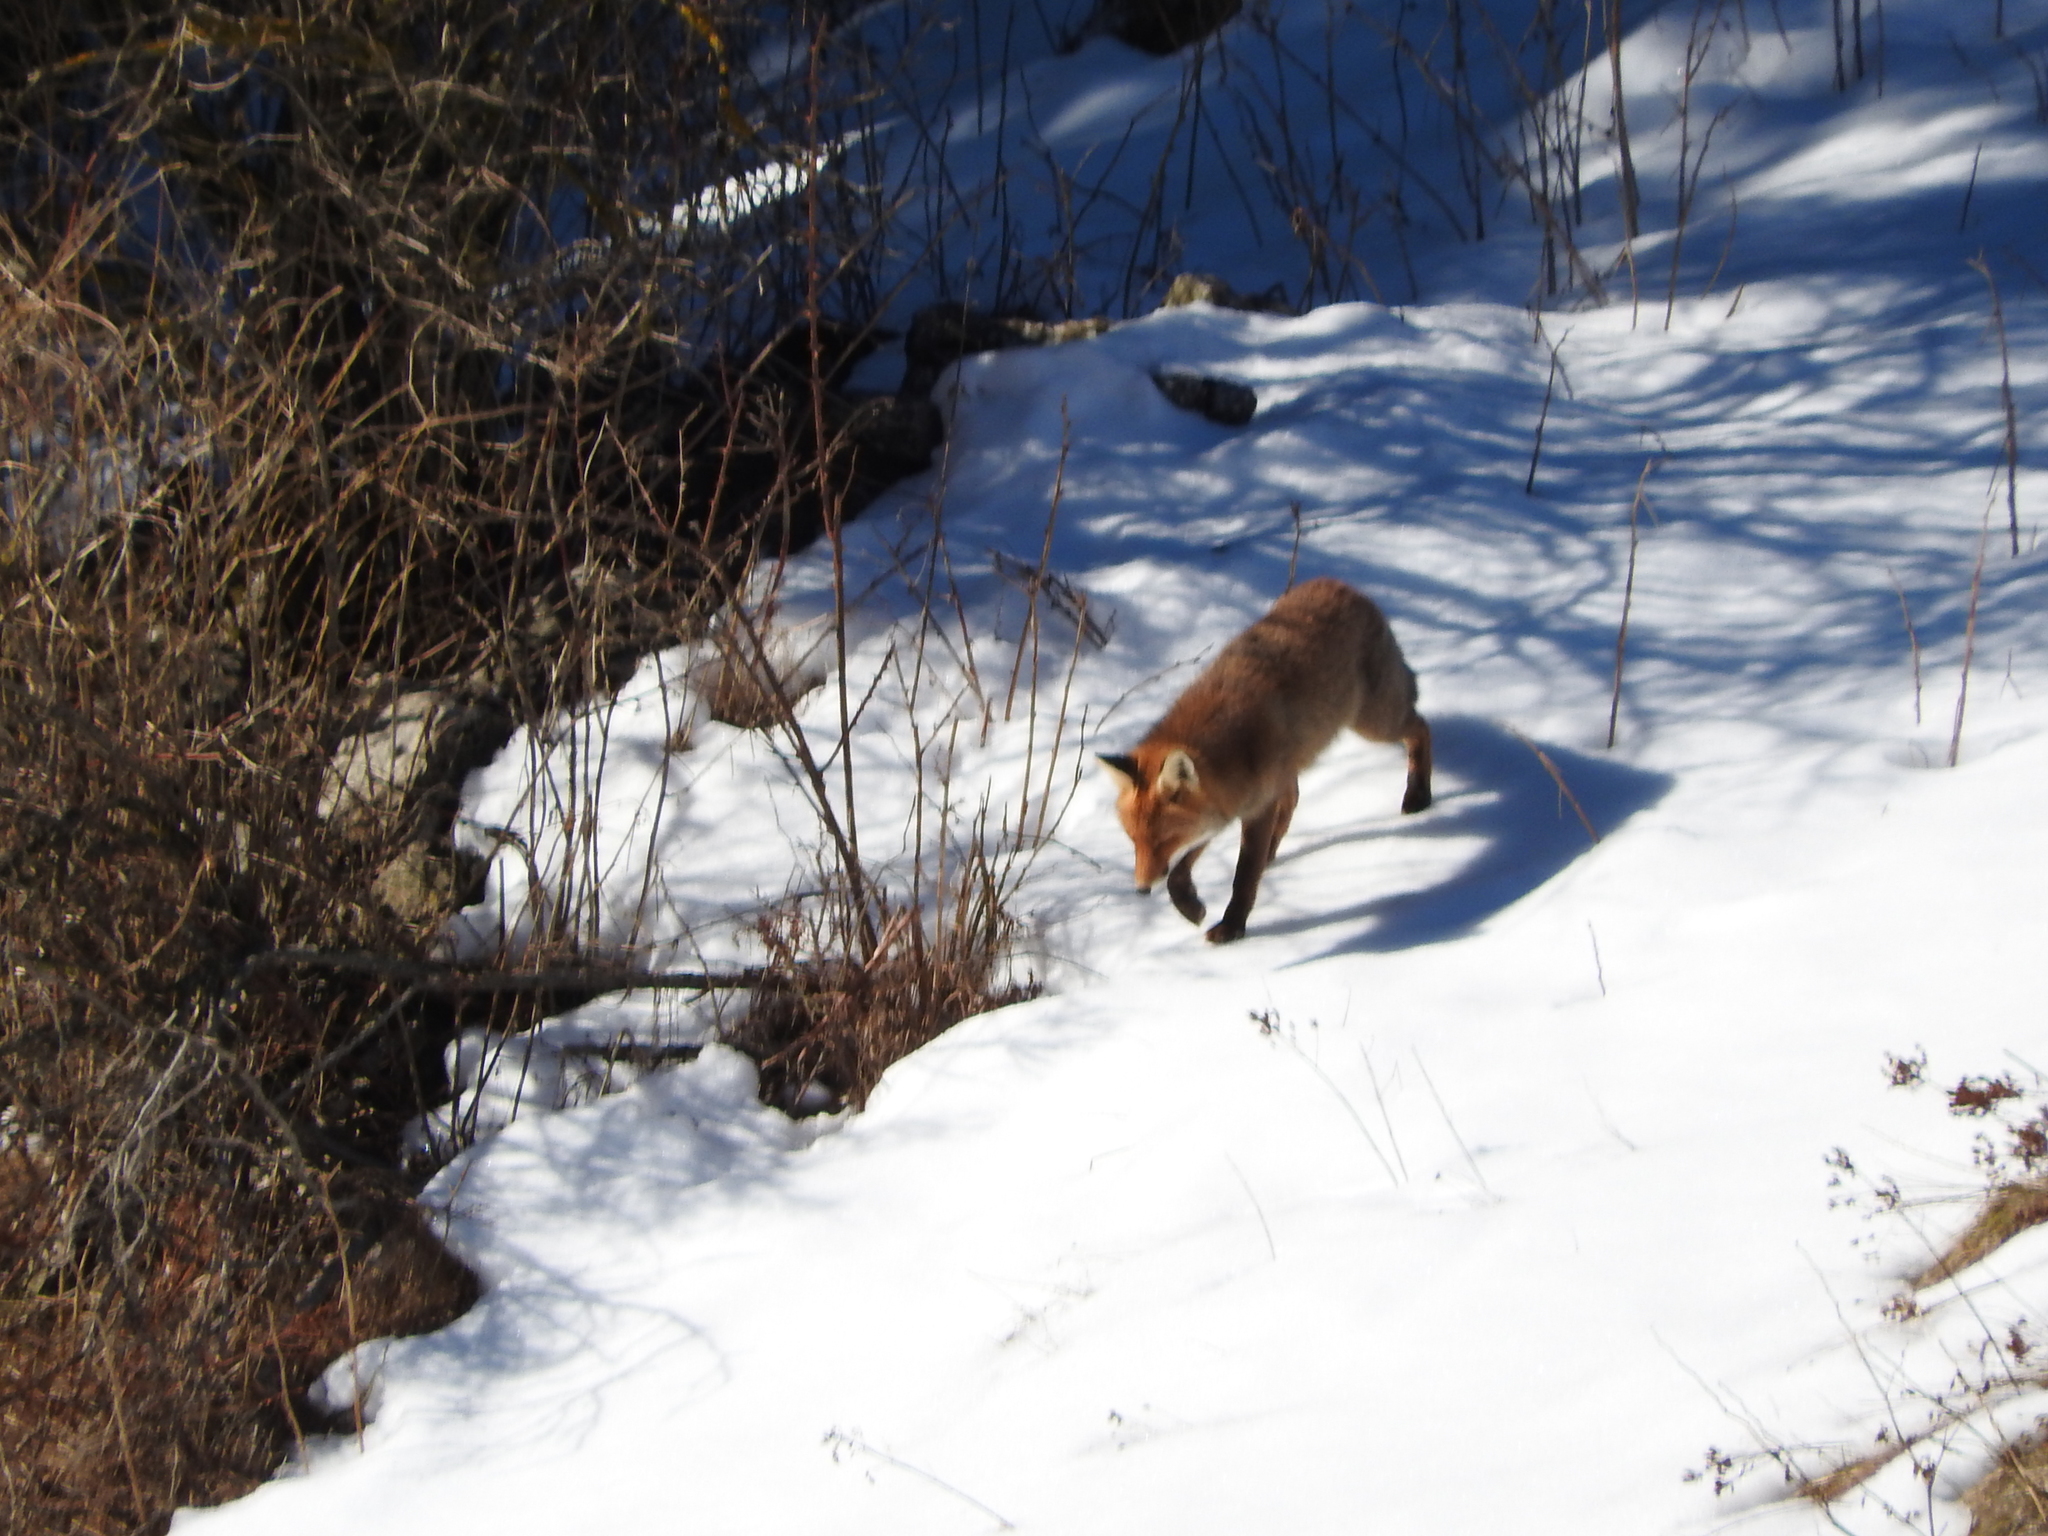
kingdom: Animalia
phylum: Chordata
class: Mammalia
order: Carnivora
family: Canidae
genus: Vulpes
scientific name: Vulpes vulpes
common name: Red fox
